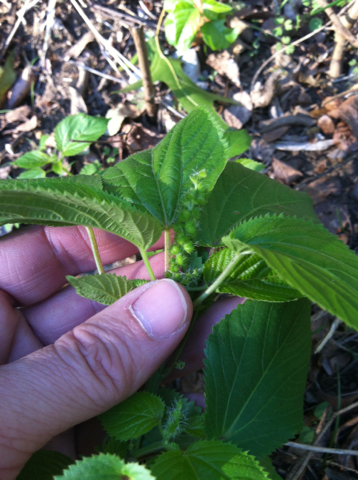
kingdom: Plantae
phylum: Tracheophyta
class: Magnoliopsida
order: Malpighiales
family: Euphorbiaceae
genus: Acalypha
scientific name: Acalypha ostryifolia
